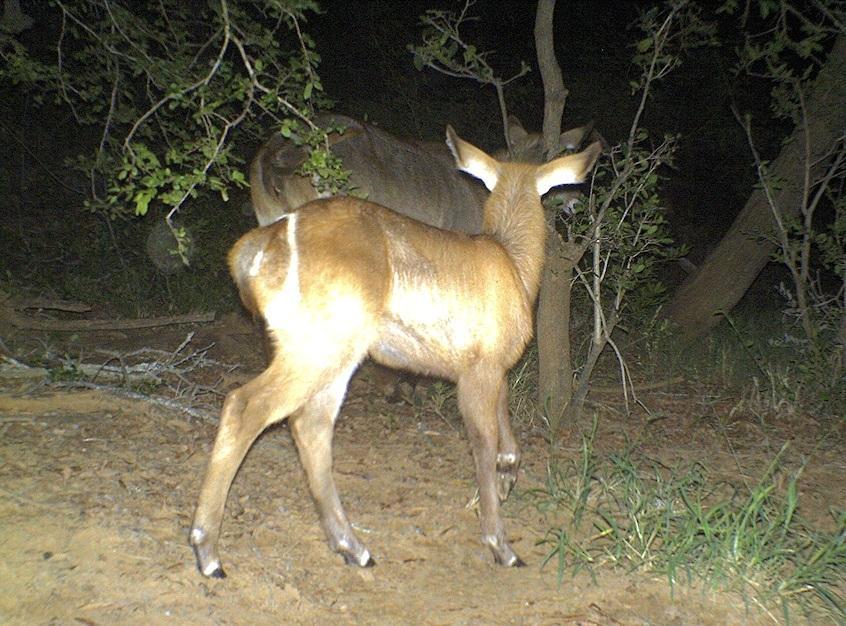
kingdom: Animalia
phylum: Chordata
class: Mammalia
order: Artiodactyla
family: Bovidae
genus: Kobus
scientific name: Kobus ellipsiprymnus
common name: Waterbuck
